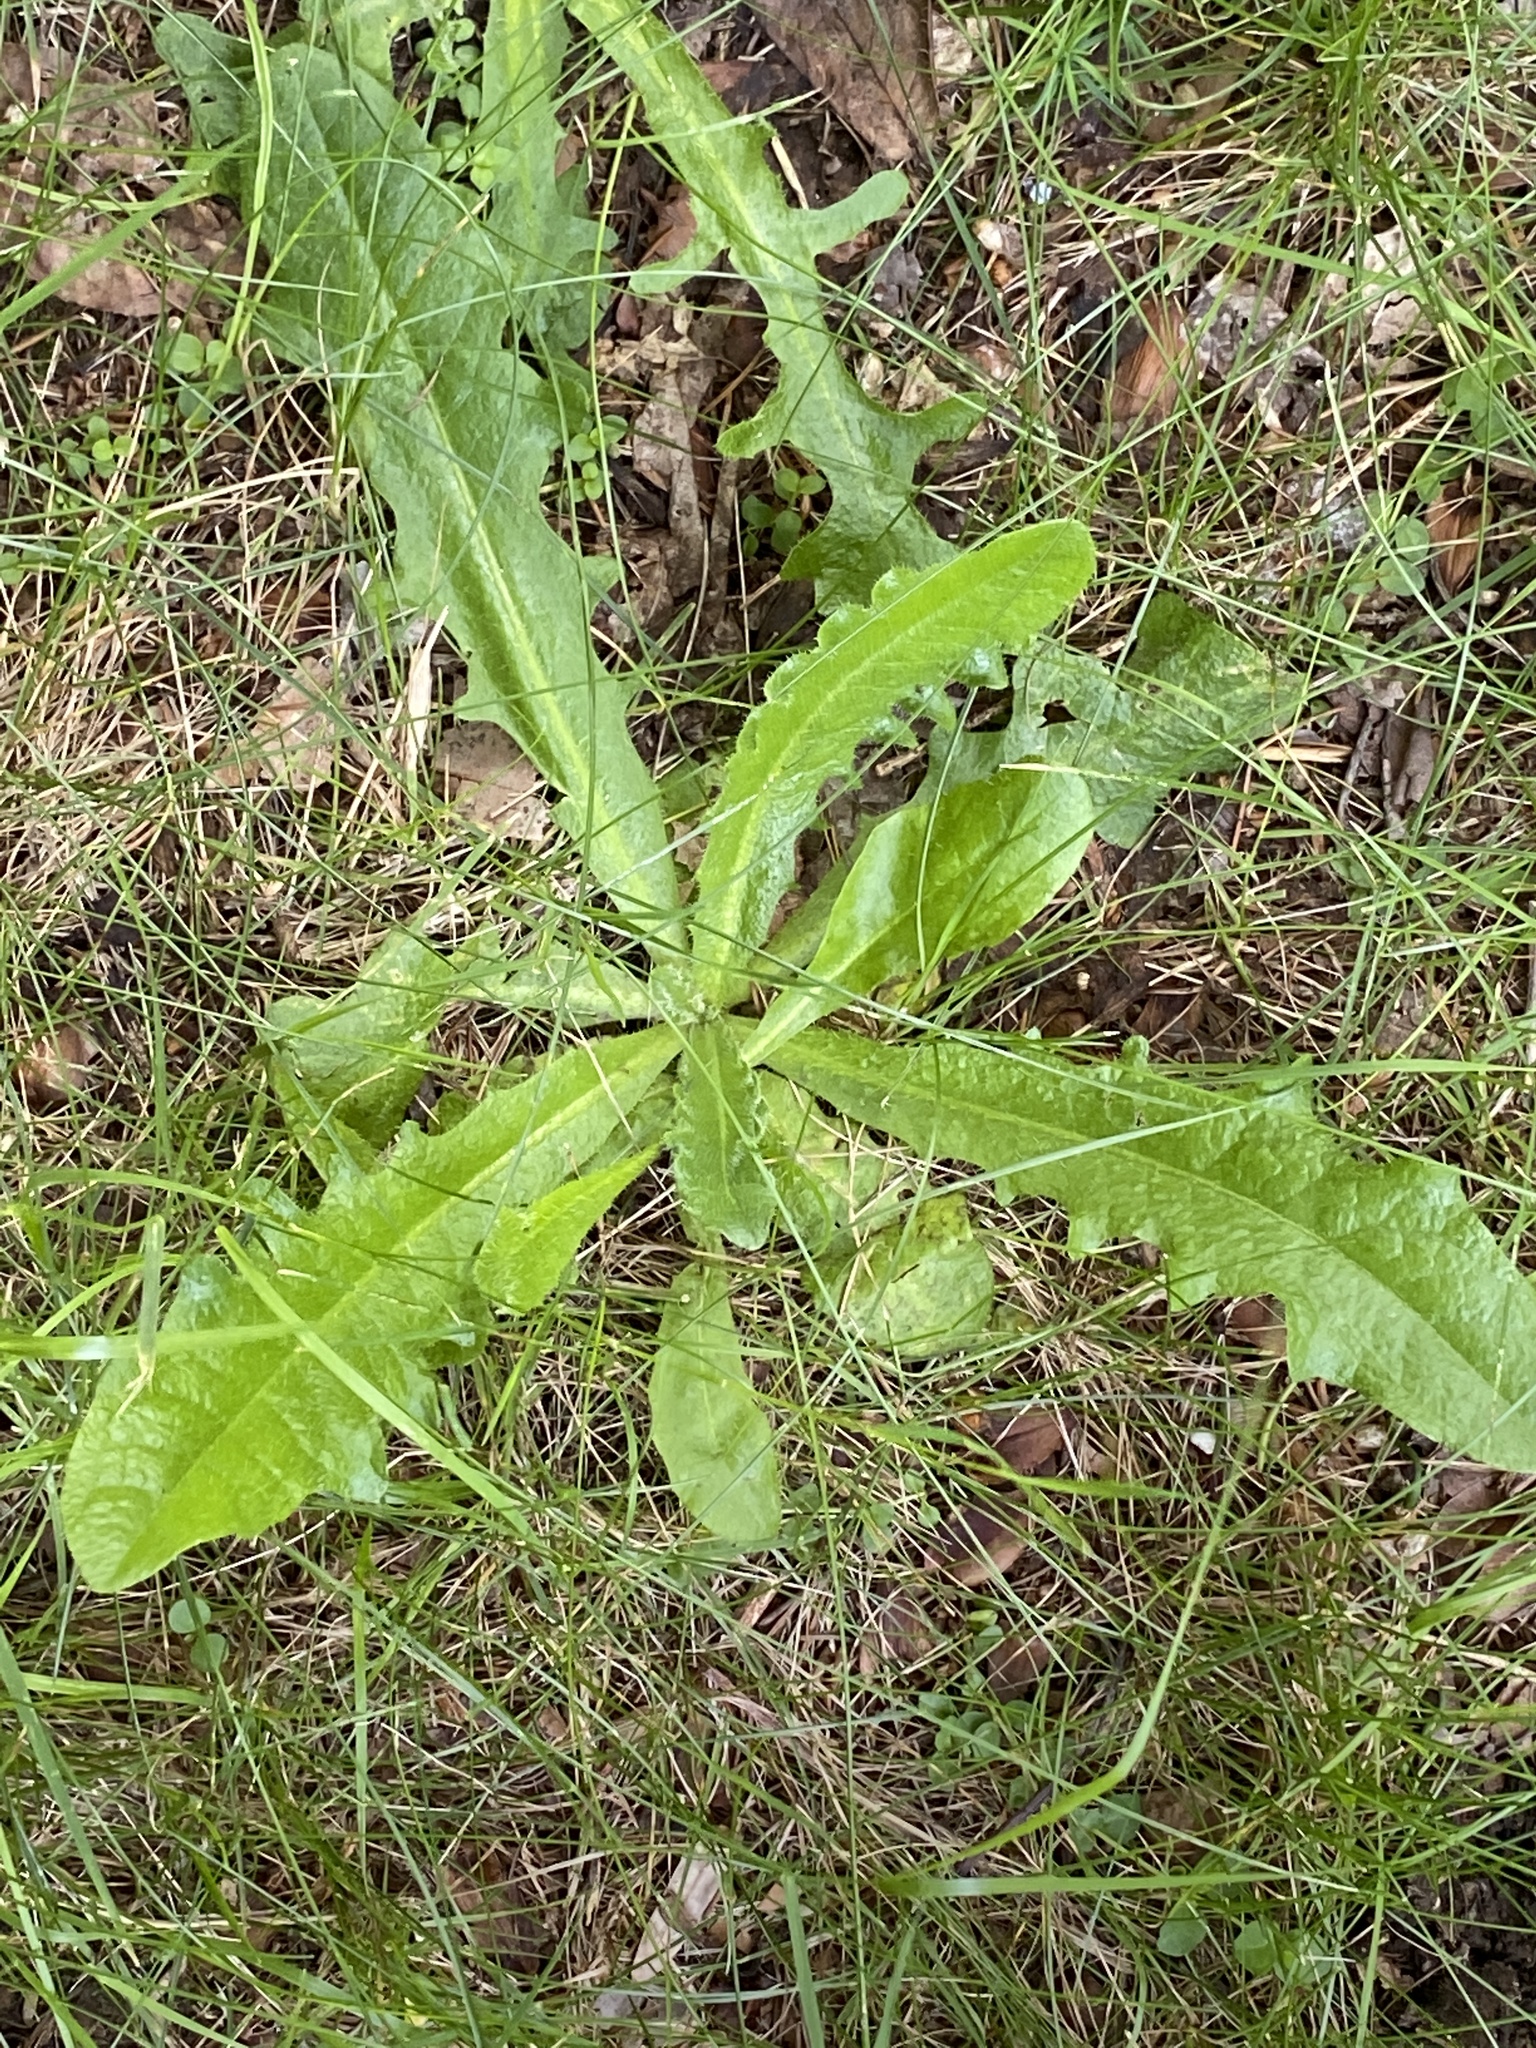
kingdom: Plantae
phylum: Tracheophyta
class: Magnoliopsida
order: Asterales
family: Asteraceae
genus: Hypochaeris
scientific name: Hypochaeris radicata
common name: Flatweed
